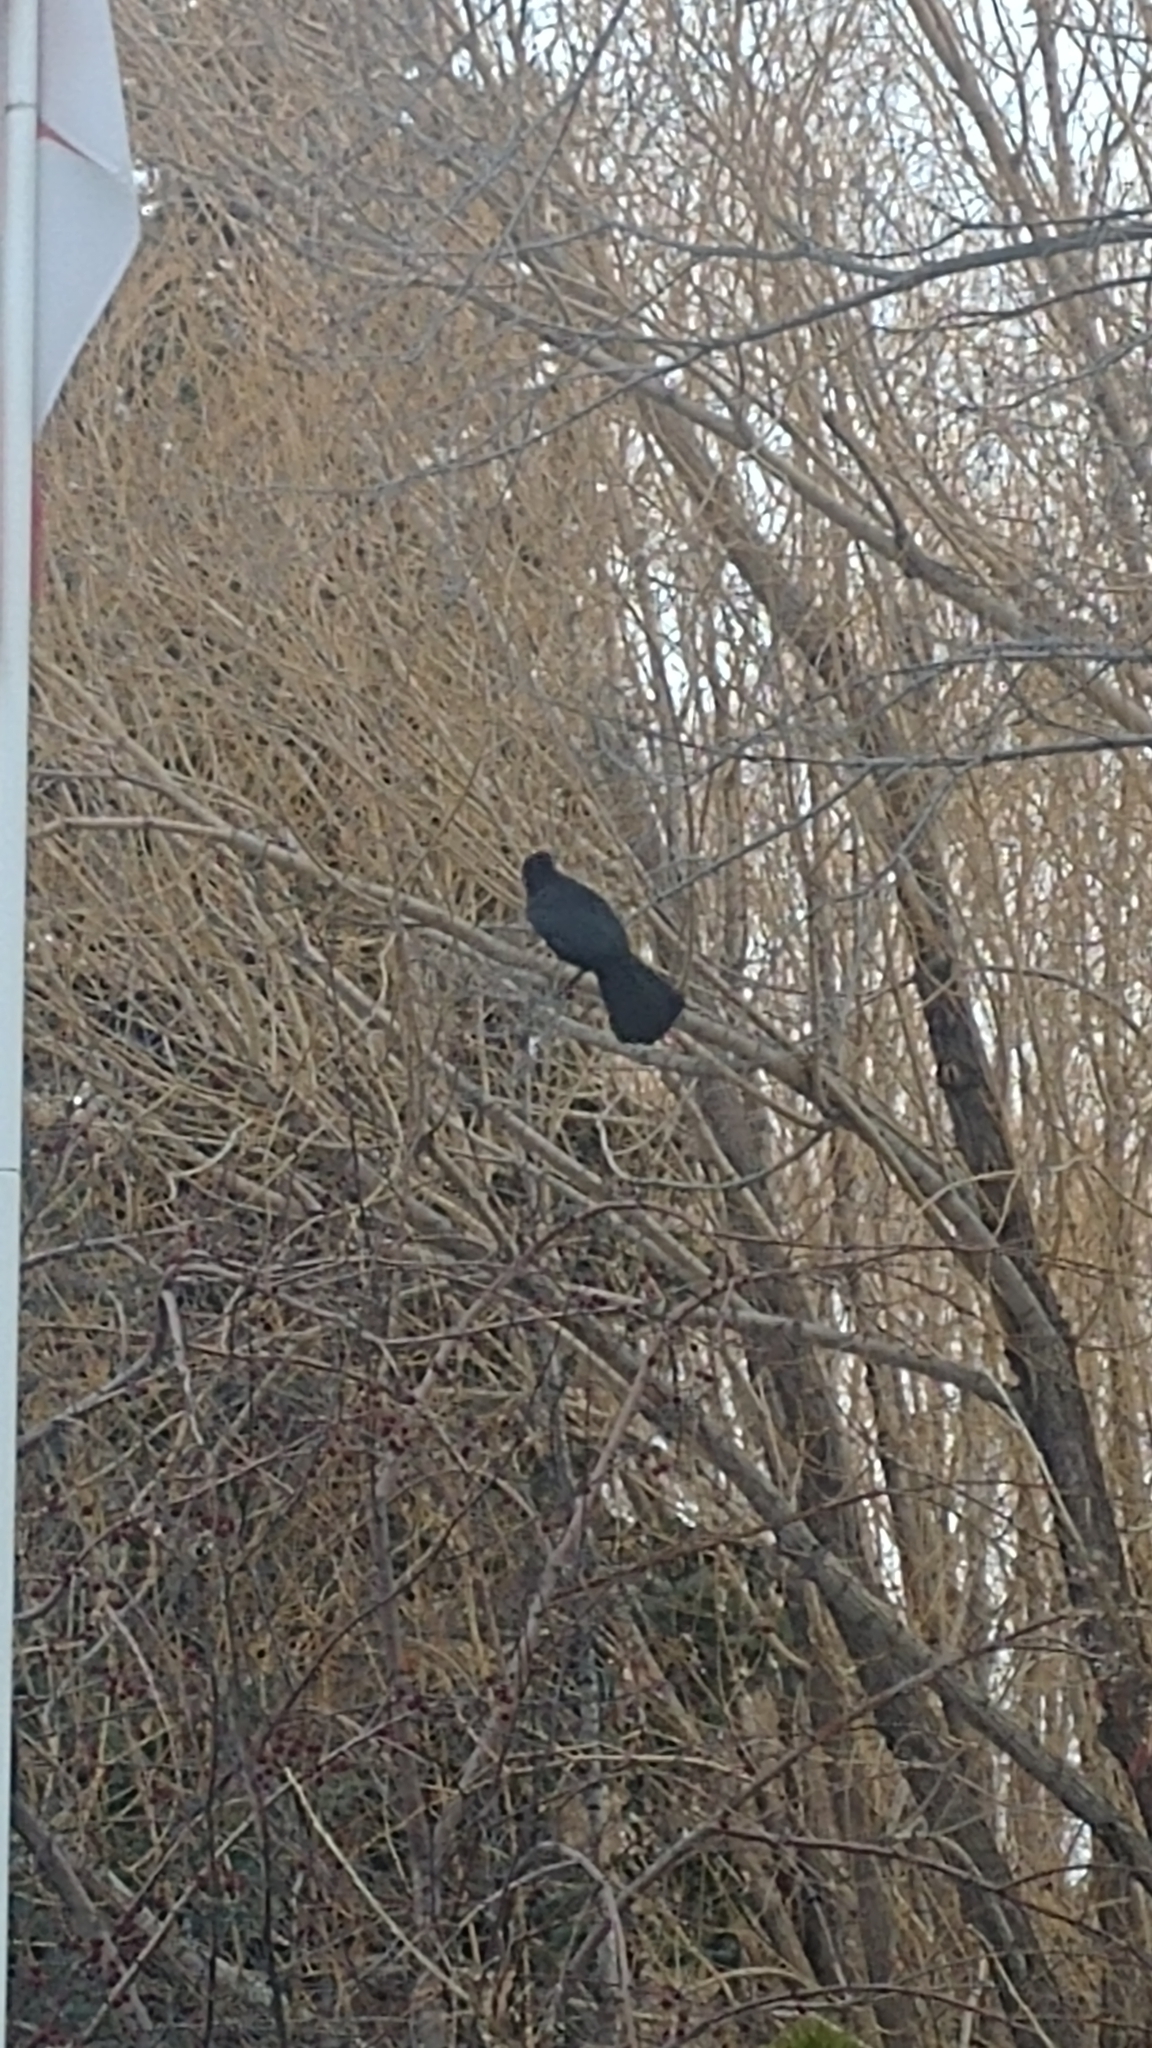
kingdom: Animalia
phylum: Chordata
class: Aves
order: Passeriformes
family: Corvidae
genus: Corvus
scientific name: Corvus brachyrhynchos
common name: American crow
